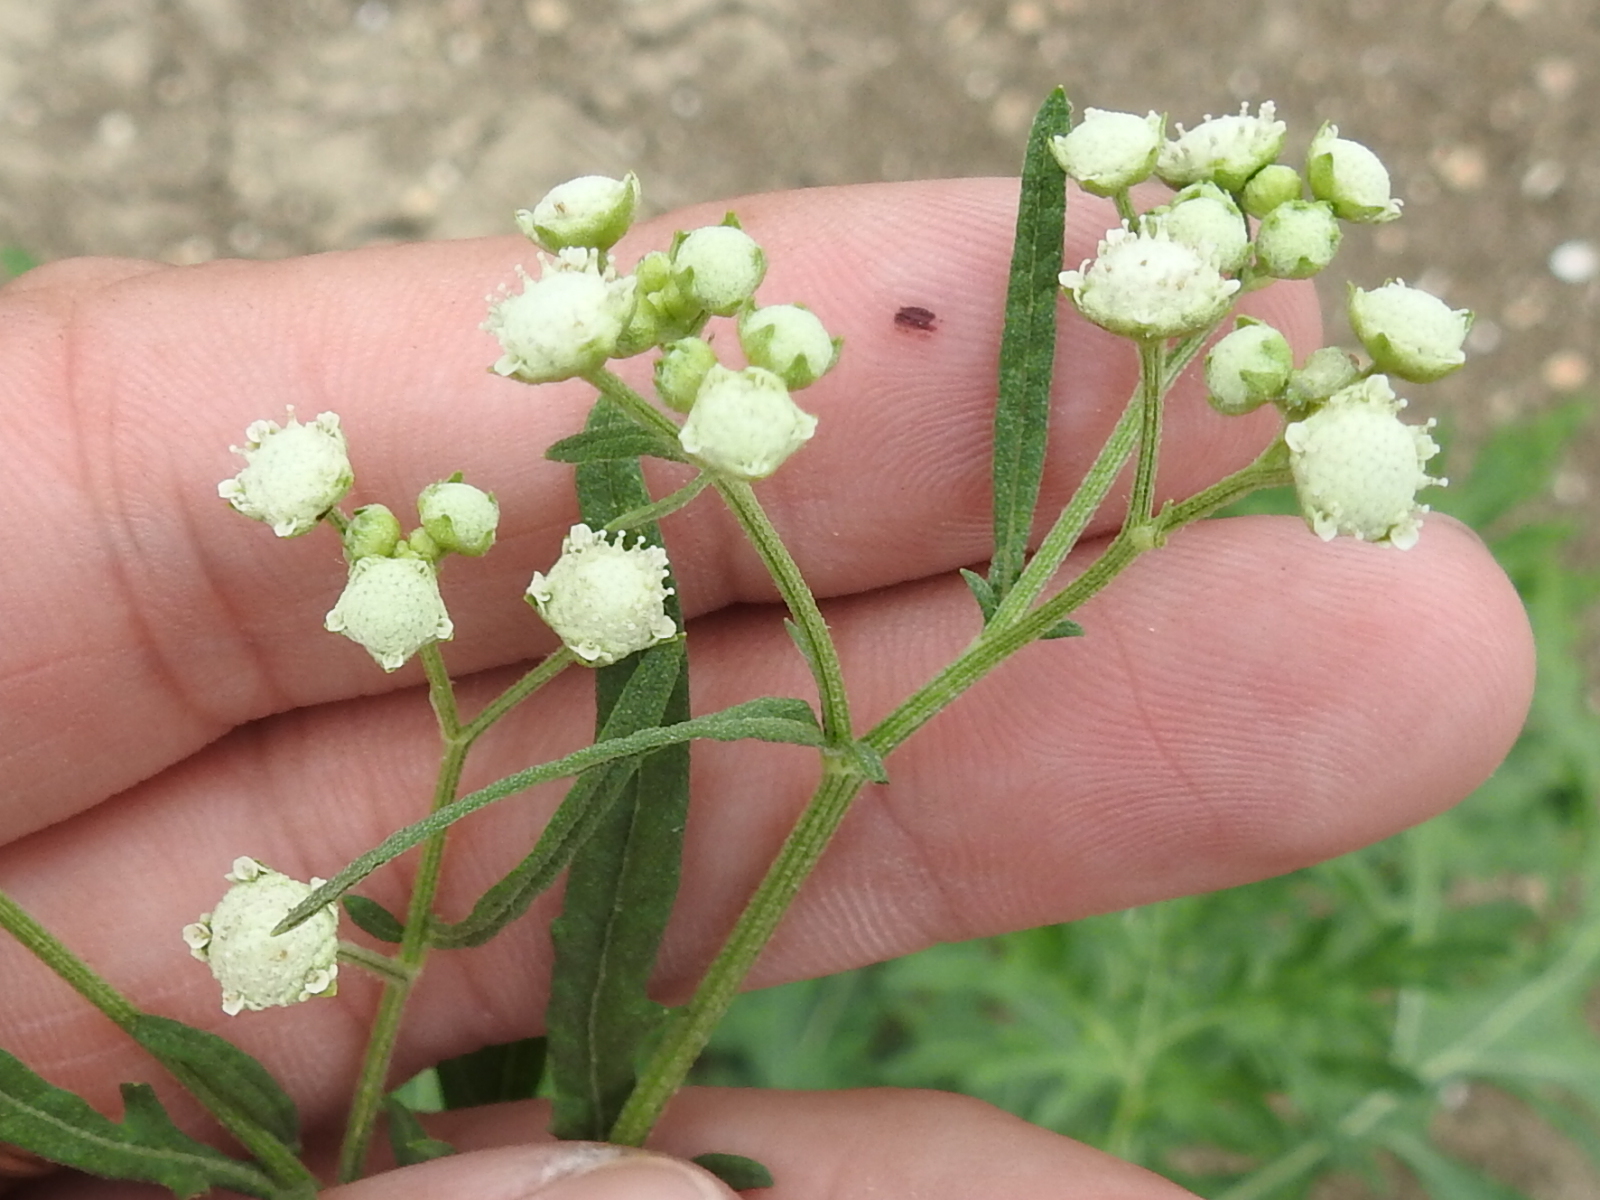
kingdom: Plantae
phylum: Tracheophyta
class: Magnoliopsida
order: Asterales
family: Asteraceae
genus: Parthenium
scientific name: Parthenium hysterophorus
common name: Santa maria feverfew
